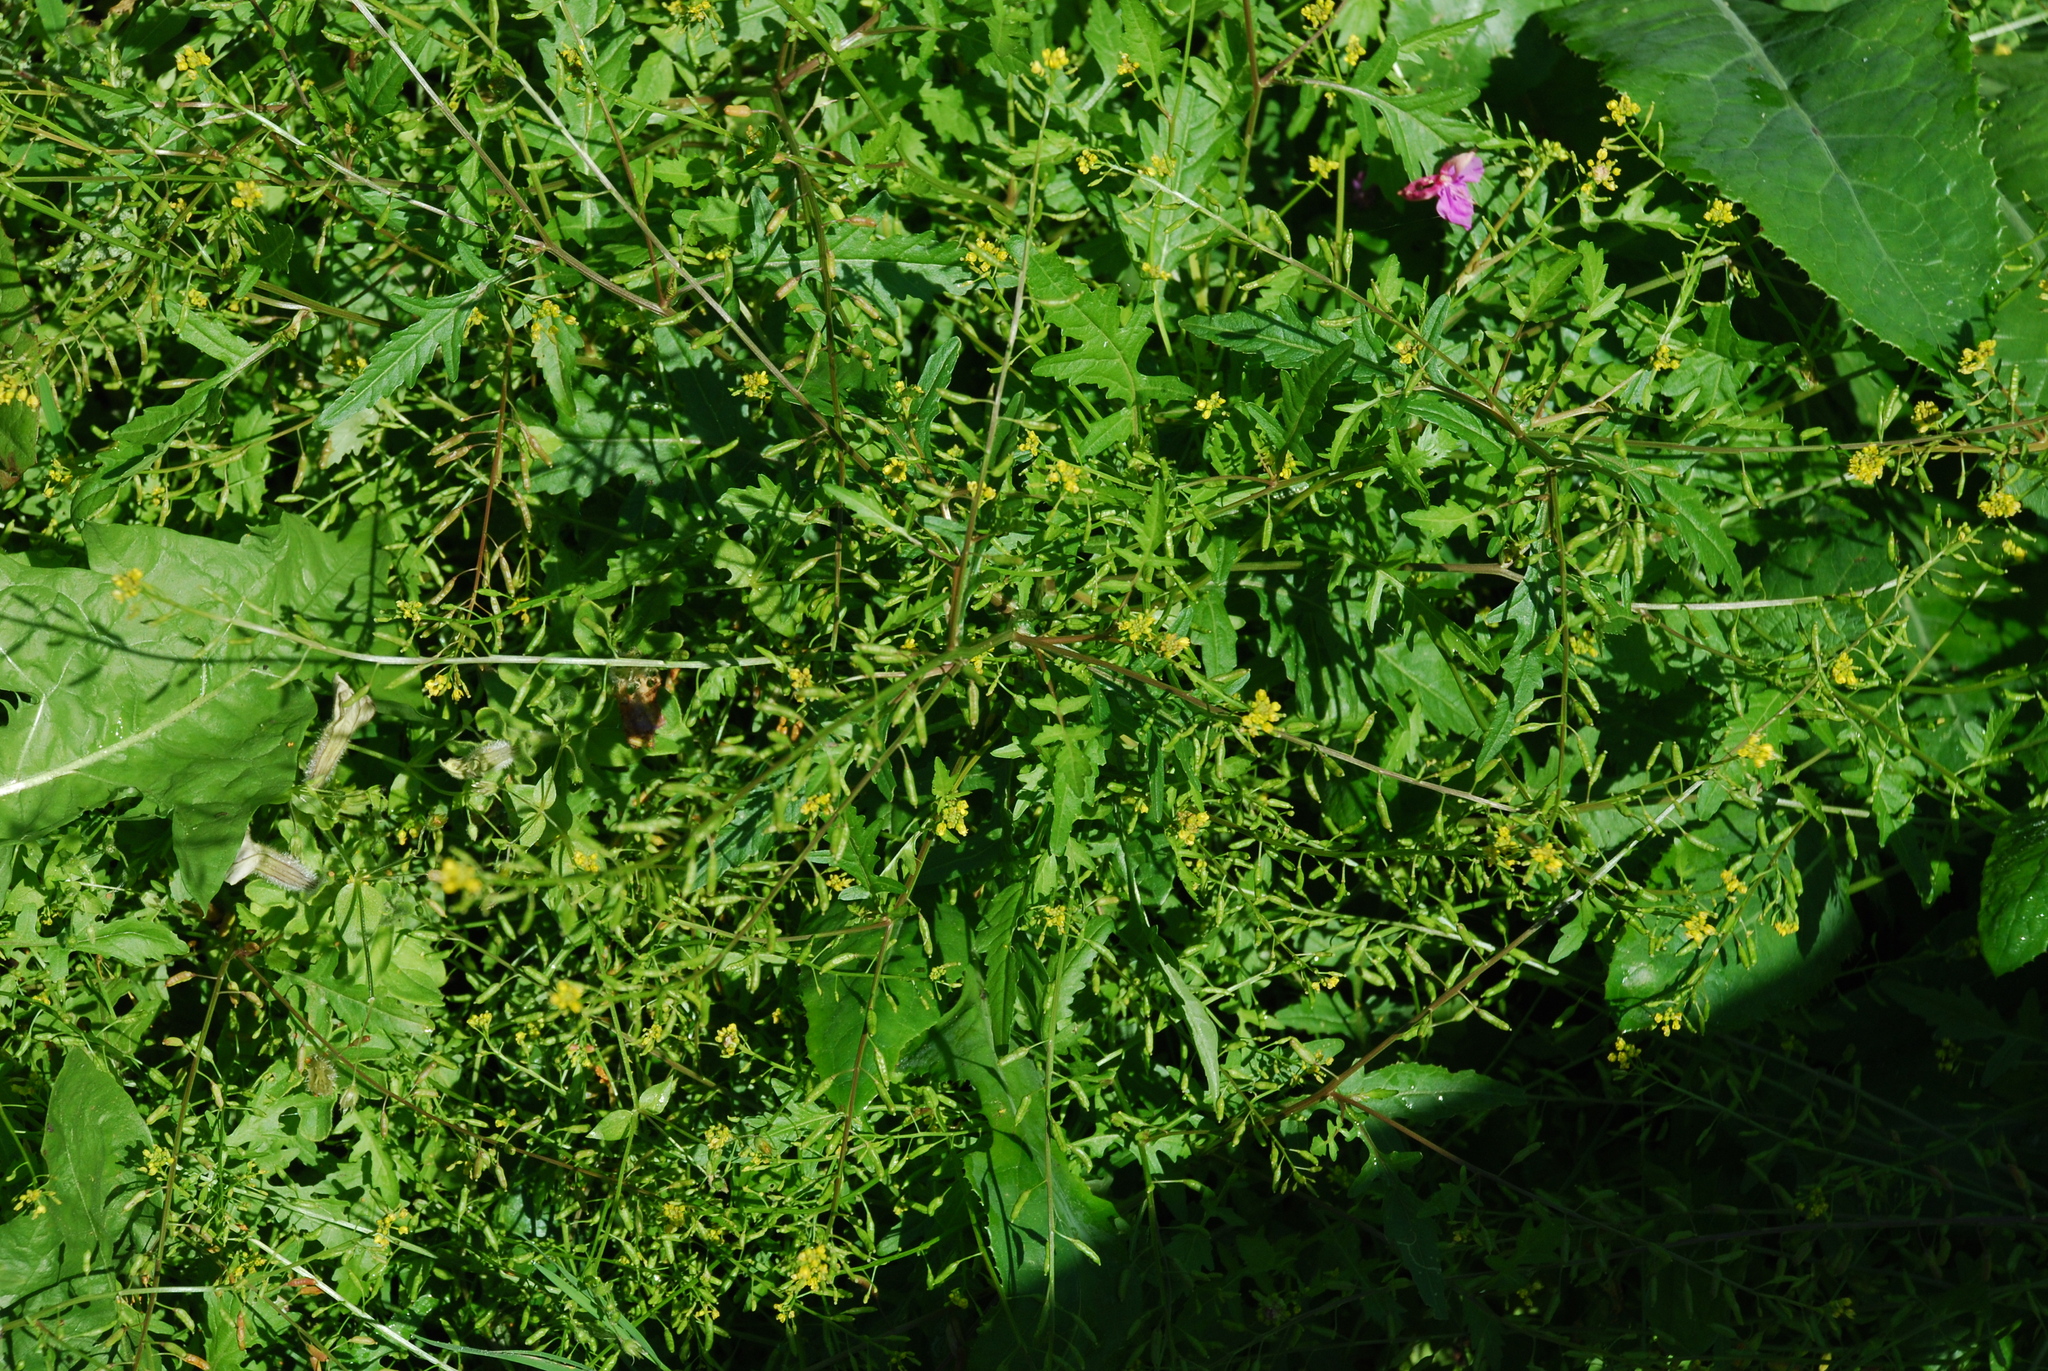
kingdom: Plantae
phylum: Tracheophyta
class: Magnoliopsida
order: Brassicales
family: Brassicaceae
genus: Rorippa
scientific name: Rorippa palustris
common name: Marsh yellow-cress
